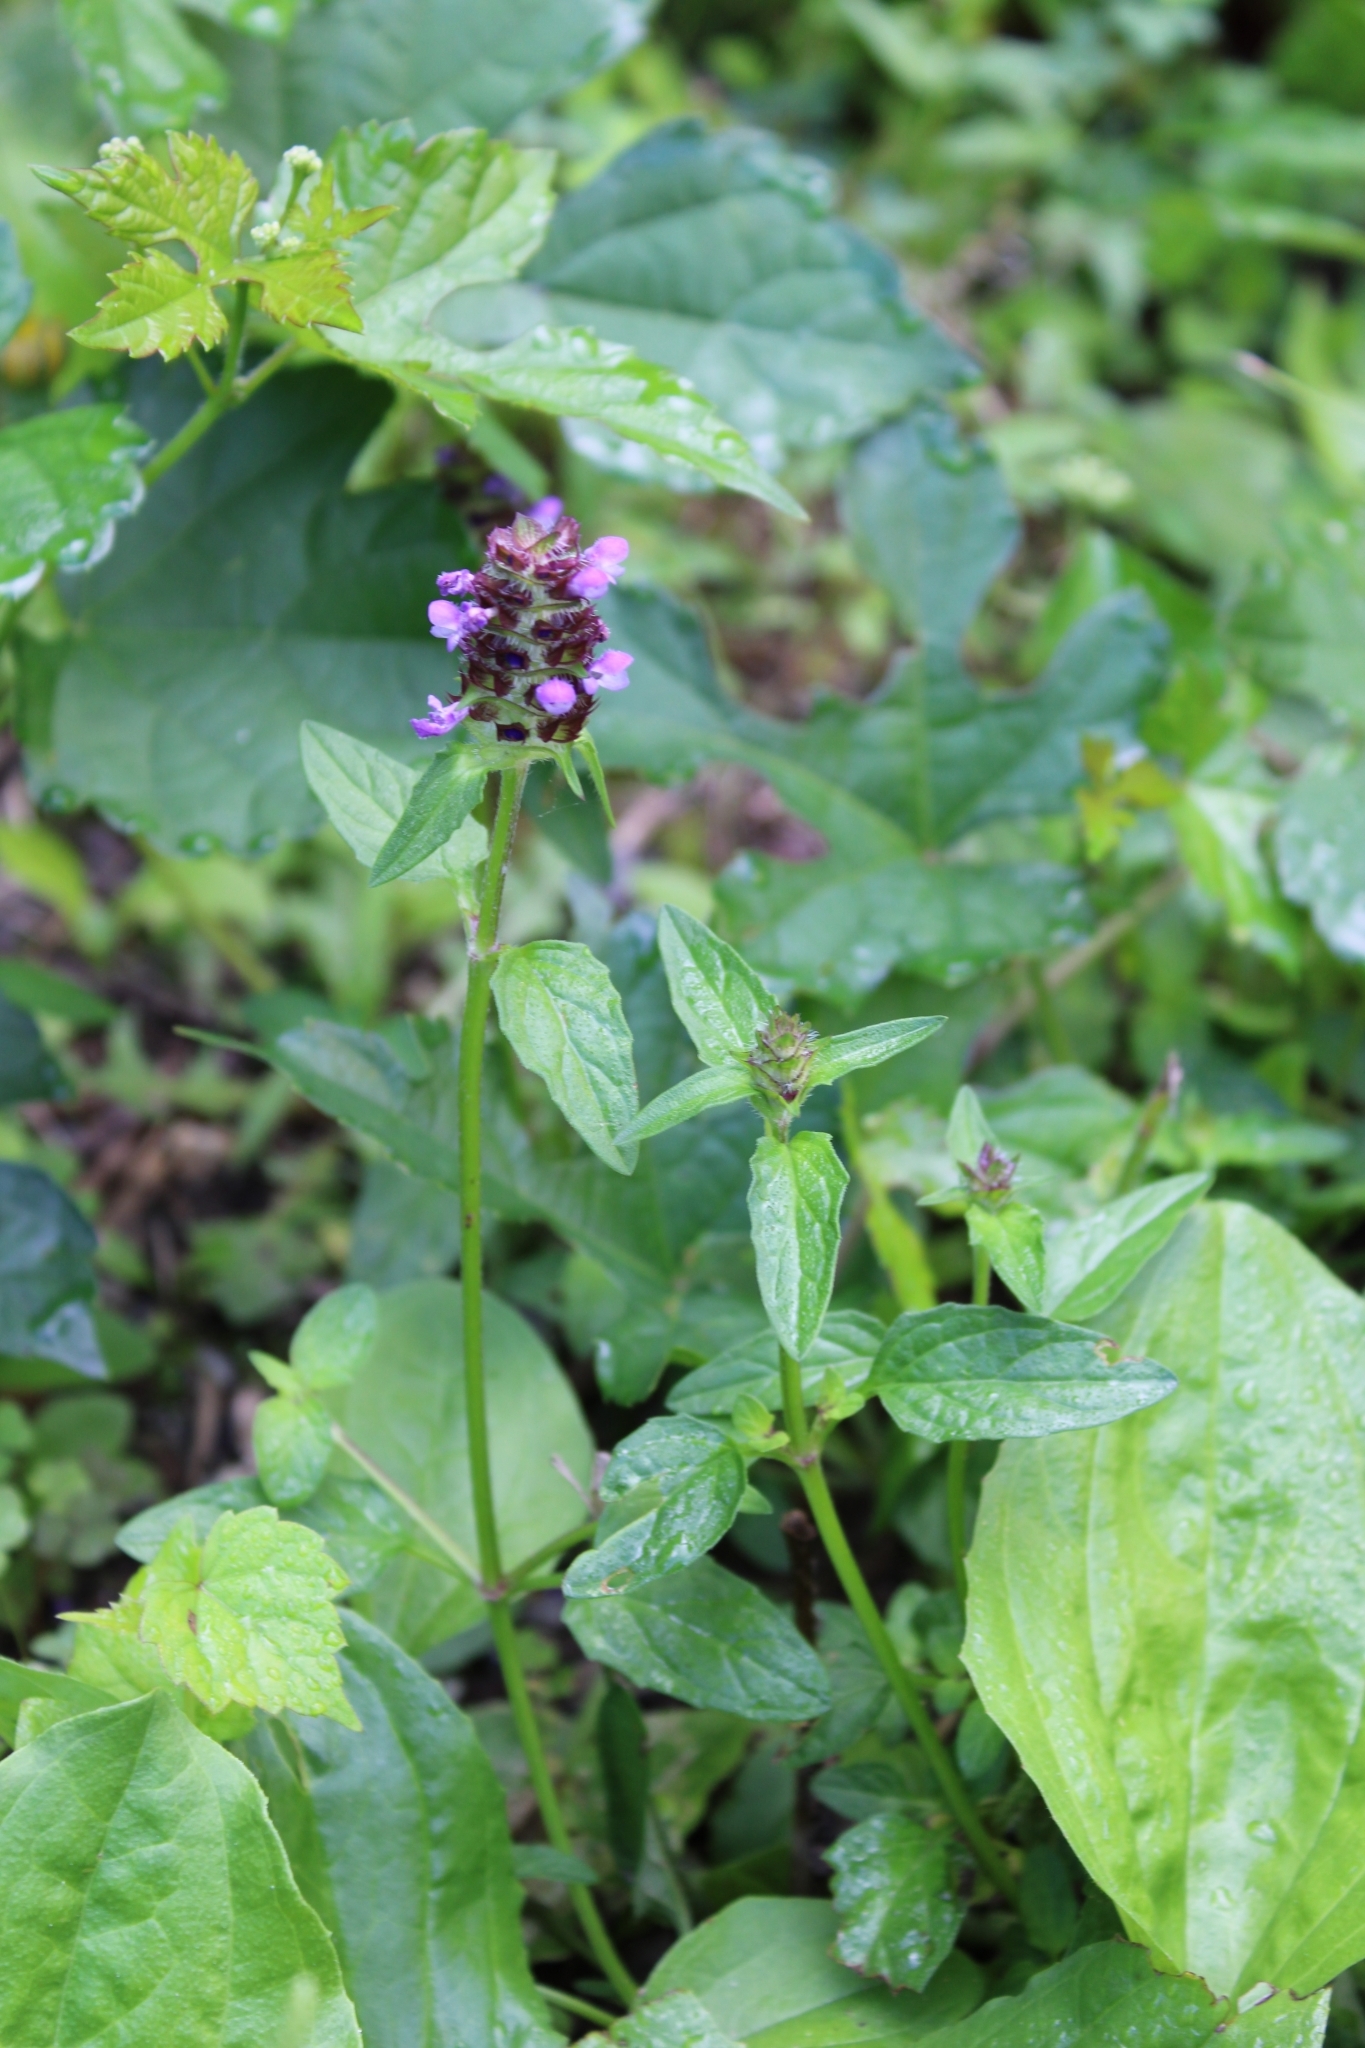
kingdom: Plantae
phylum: Tracheophyta
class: Magnoliopsida
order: Lamiales
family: Lamiaceae
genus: Prunella
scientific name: Prunella vulgaris
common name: Heal-all
